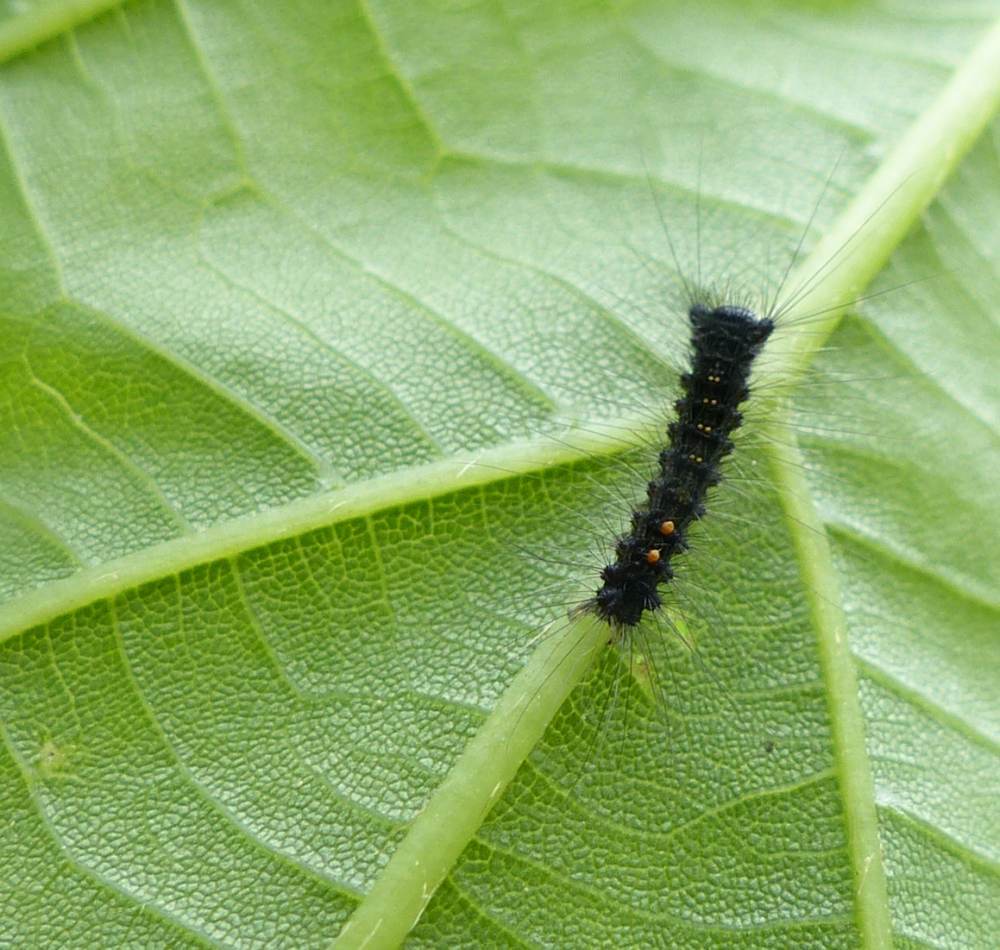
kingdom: Animalia
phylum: Arthropoda
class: Insecta
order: Lepidoptera
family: Erebidae
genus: Lymantria
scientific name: Lymantria dispar
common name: Gypsy moth
